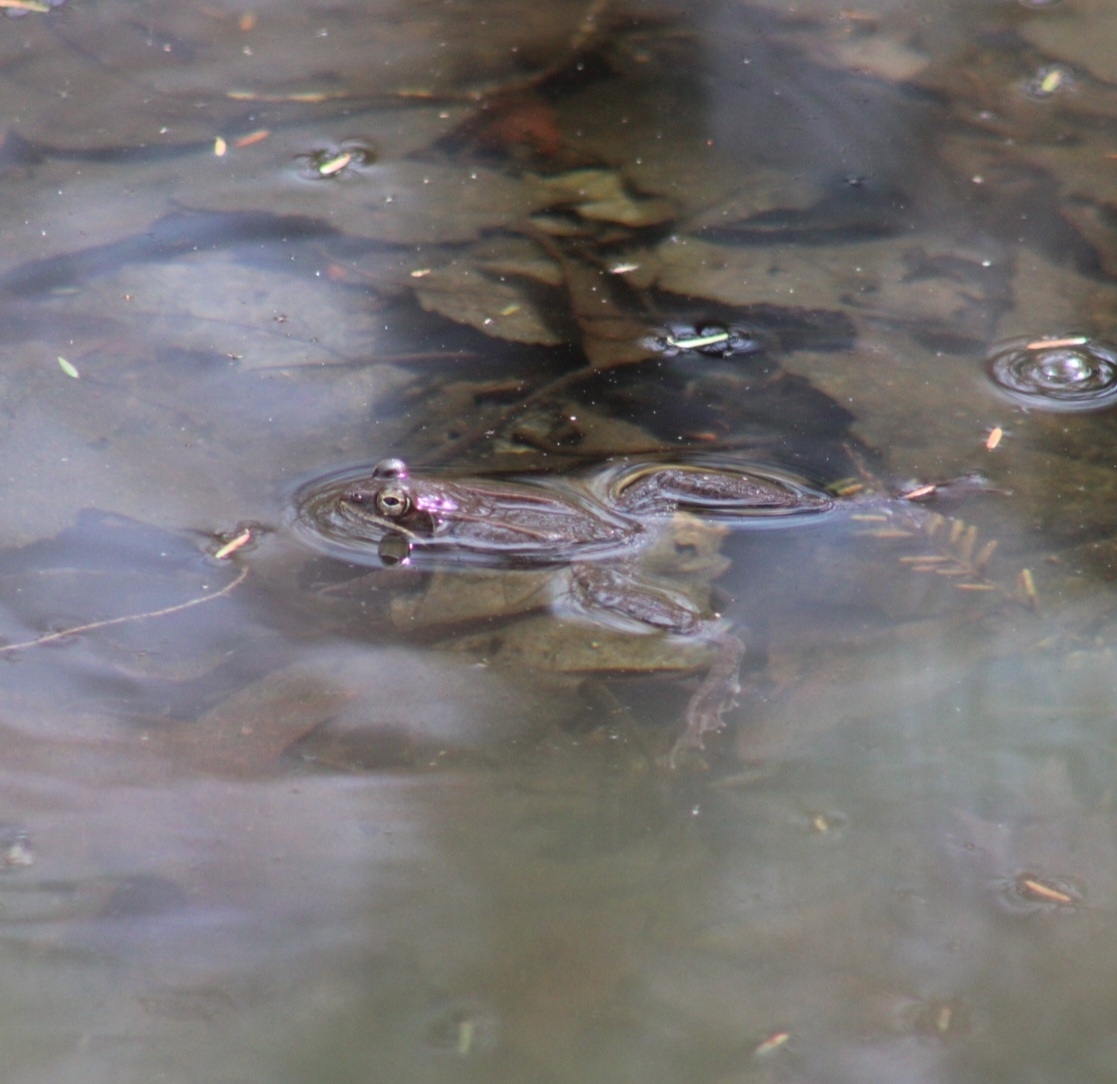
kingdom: Animalia
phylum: Chordata
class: Amphibia
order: Anura
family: Ranidae
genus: Lithobates
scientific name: Lithobates sylvaticus
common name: Wood frog
